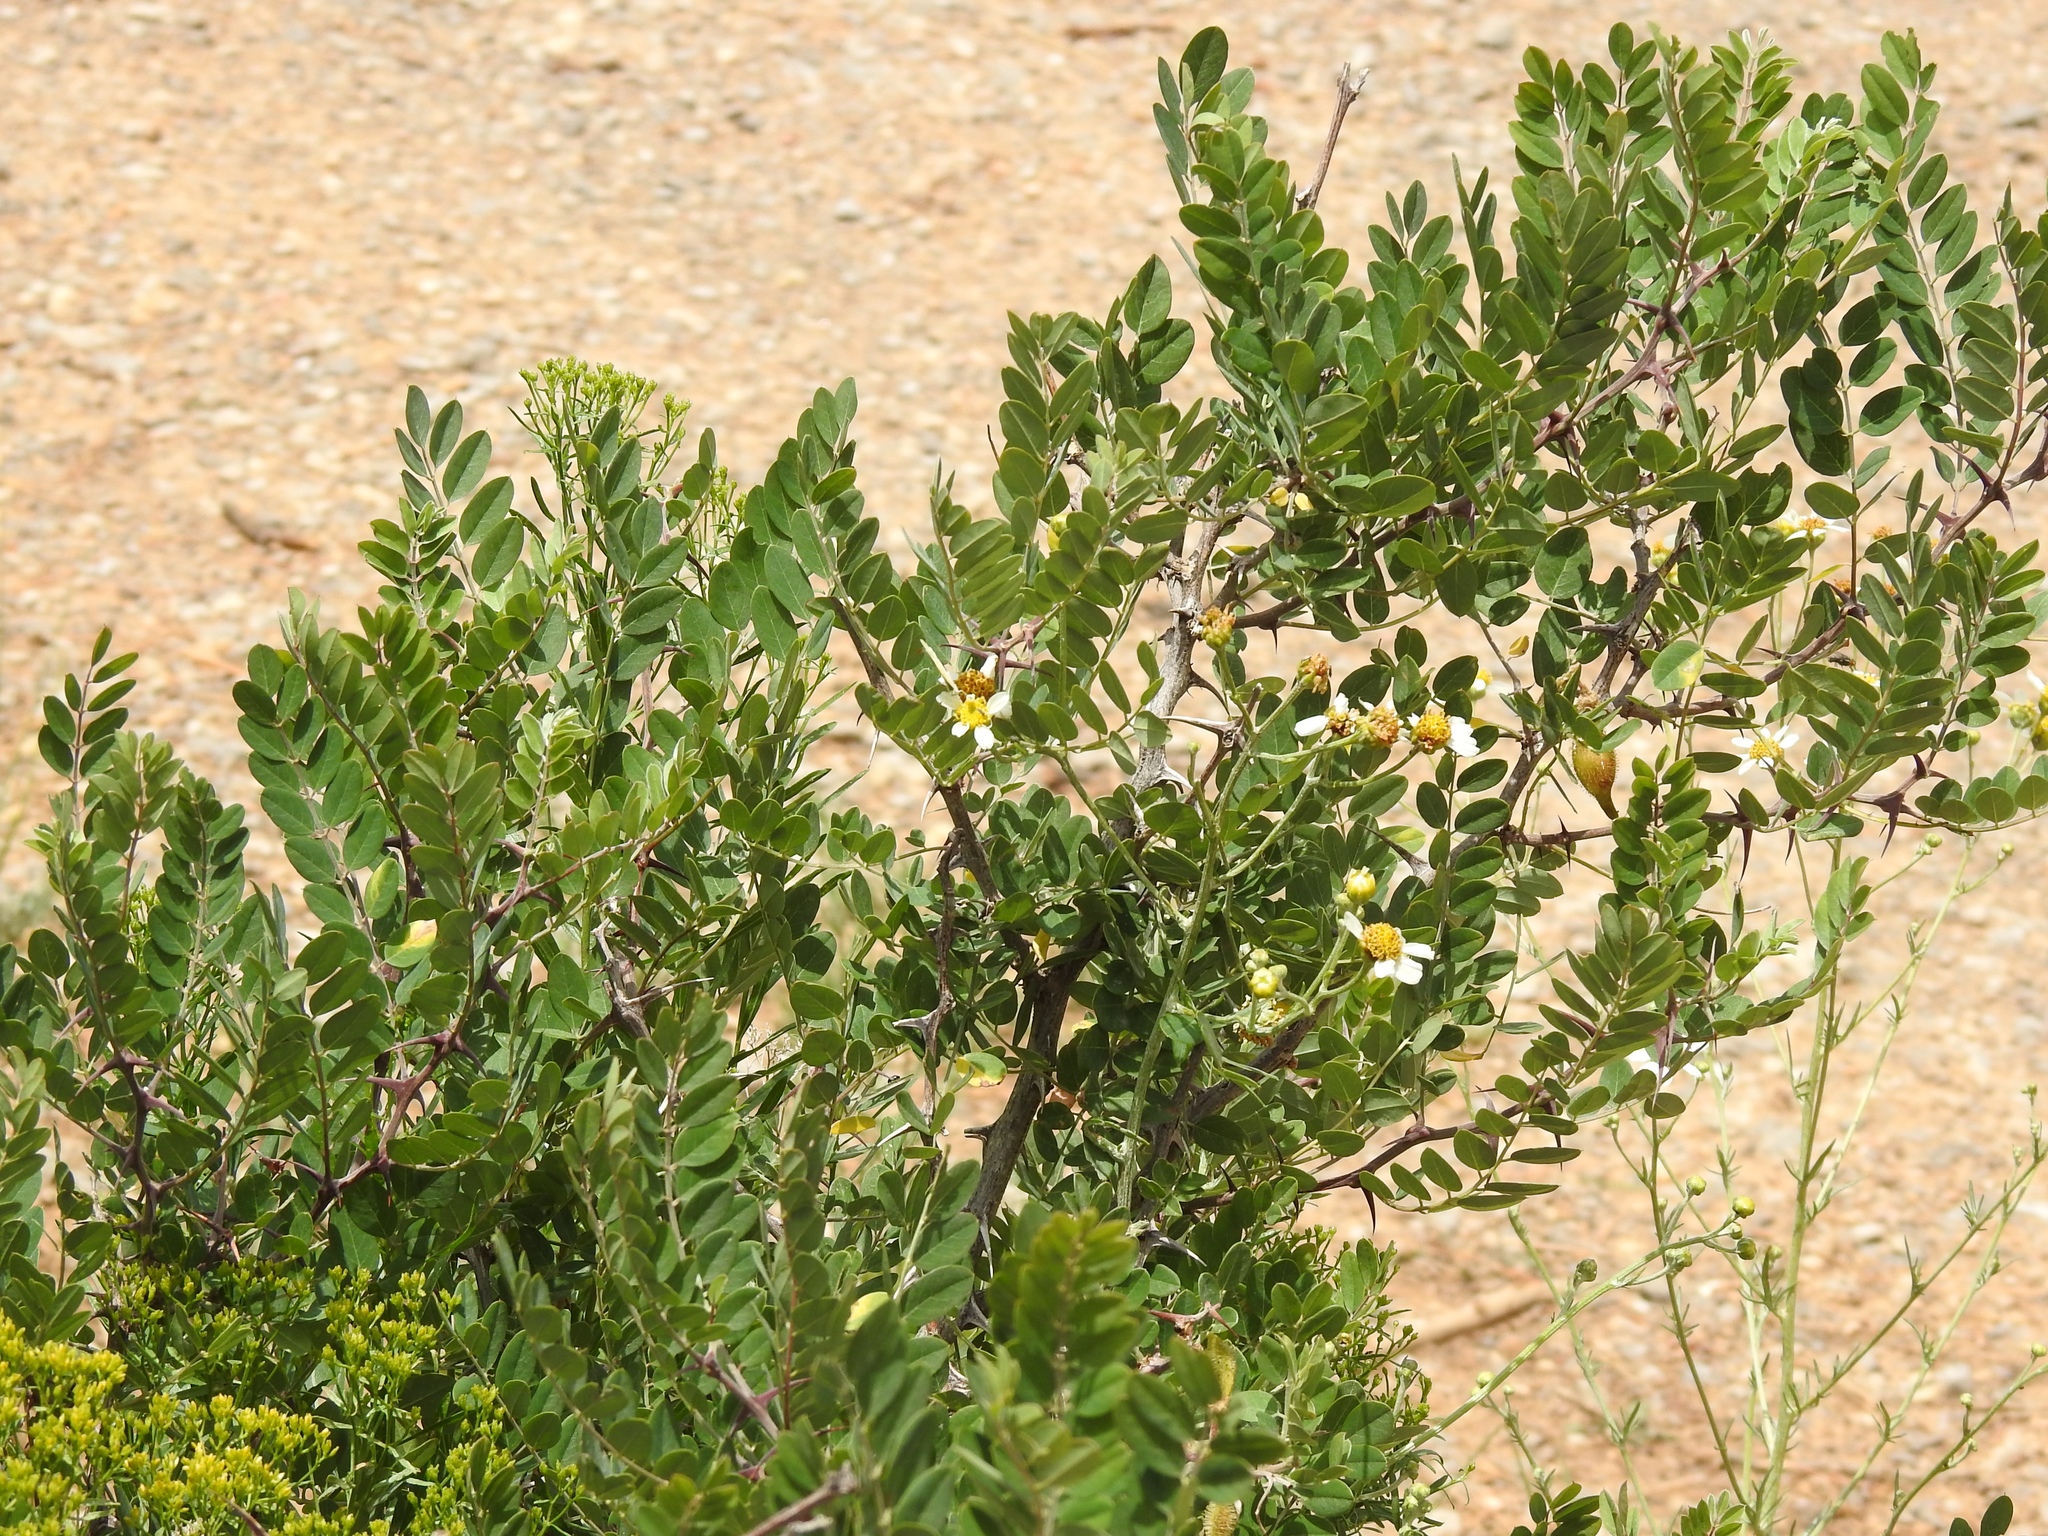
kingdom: Plantae
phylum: Tracheophyta
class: Magnoliopsida
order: Fabales
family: Fabaceae
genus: Robinia
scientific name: Robinia neomexicana
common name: New mexico locust
